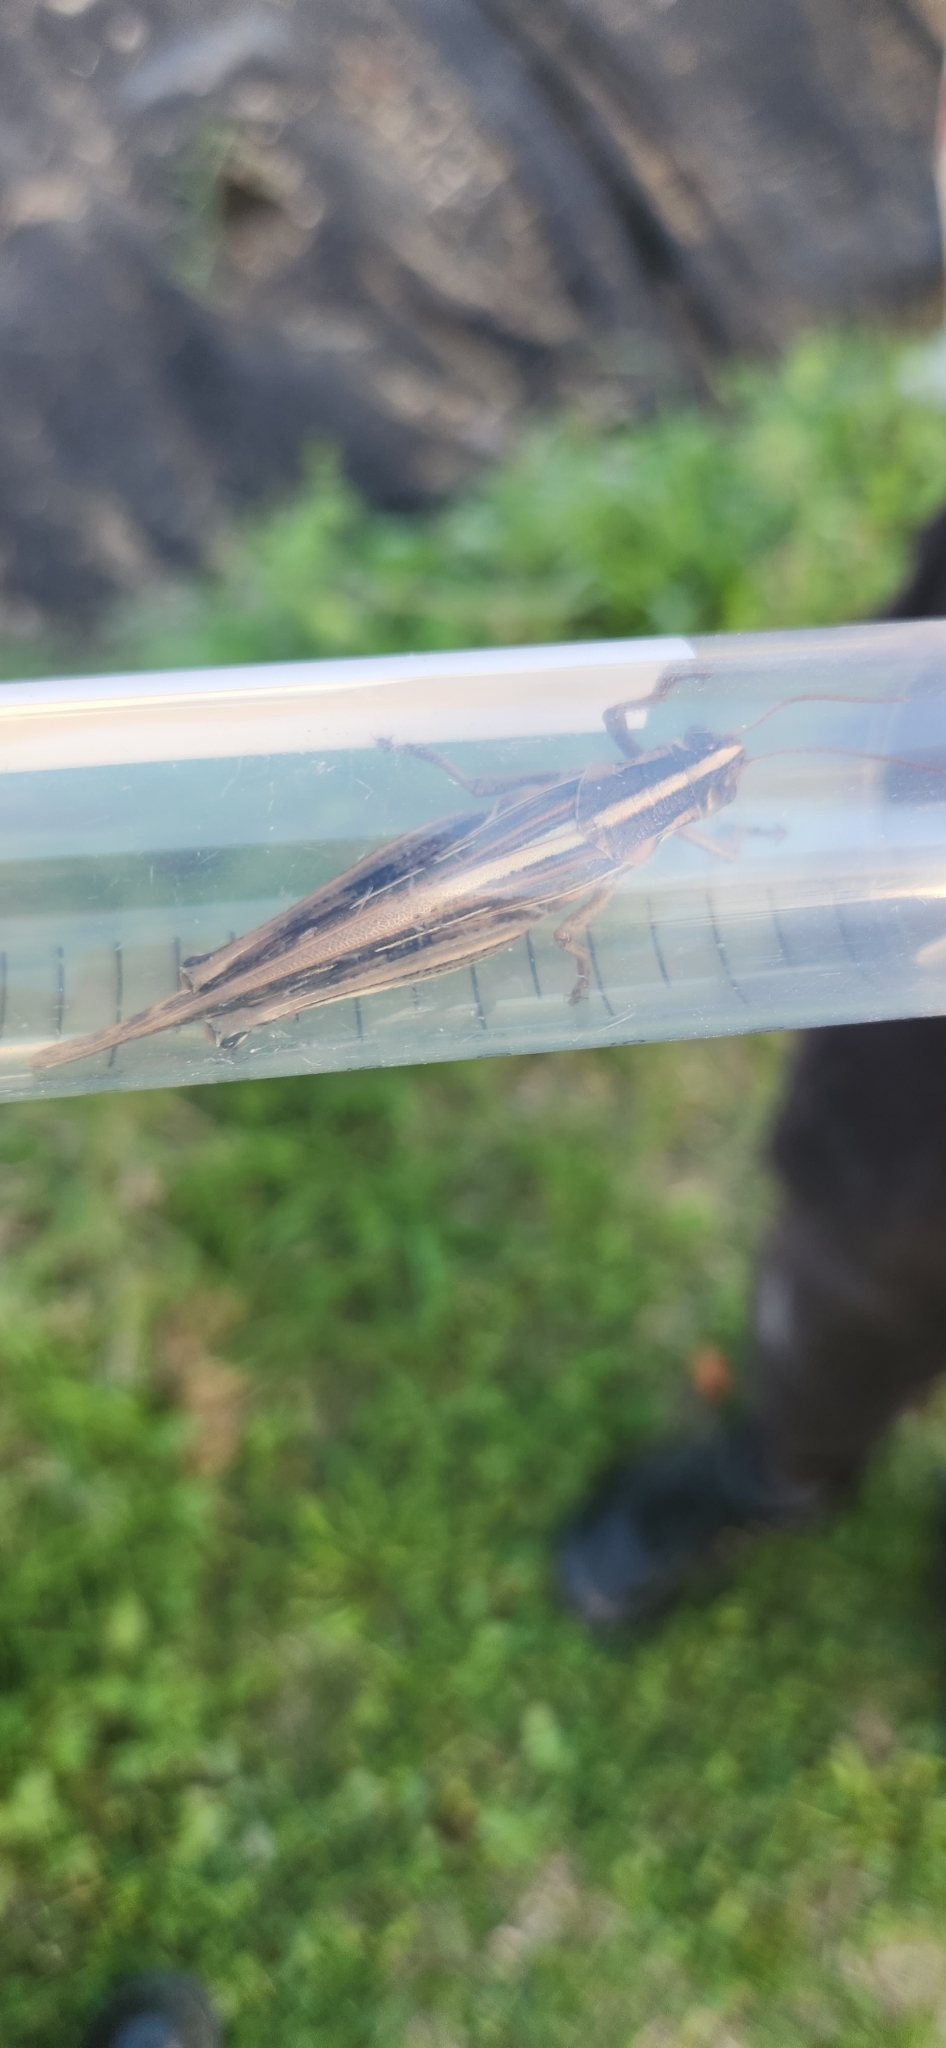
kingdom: Animalia
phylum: Arthropoda
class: Insecta
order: Orthoptera
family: Acrididae
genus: Schistocerca
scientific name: Schistocerca americana
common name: American bird locust
